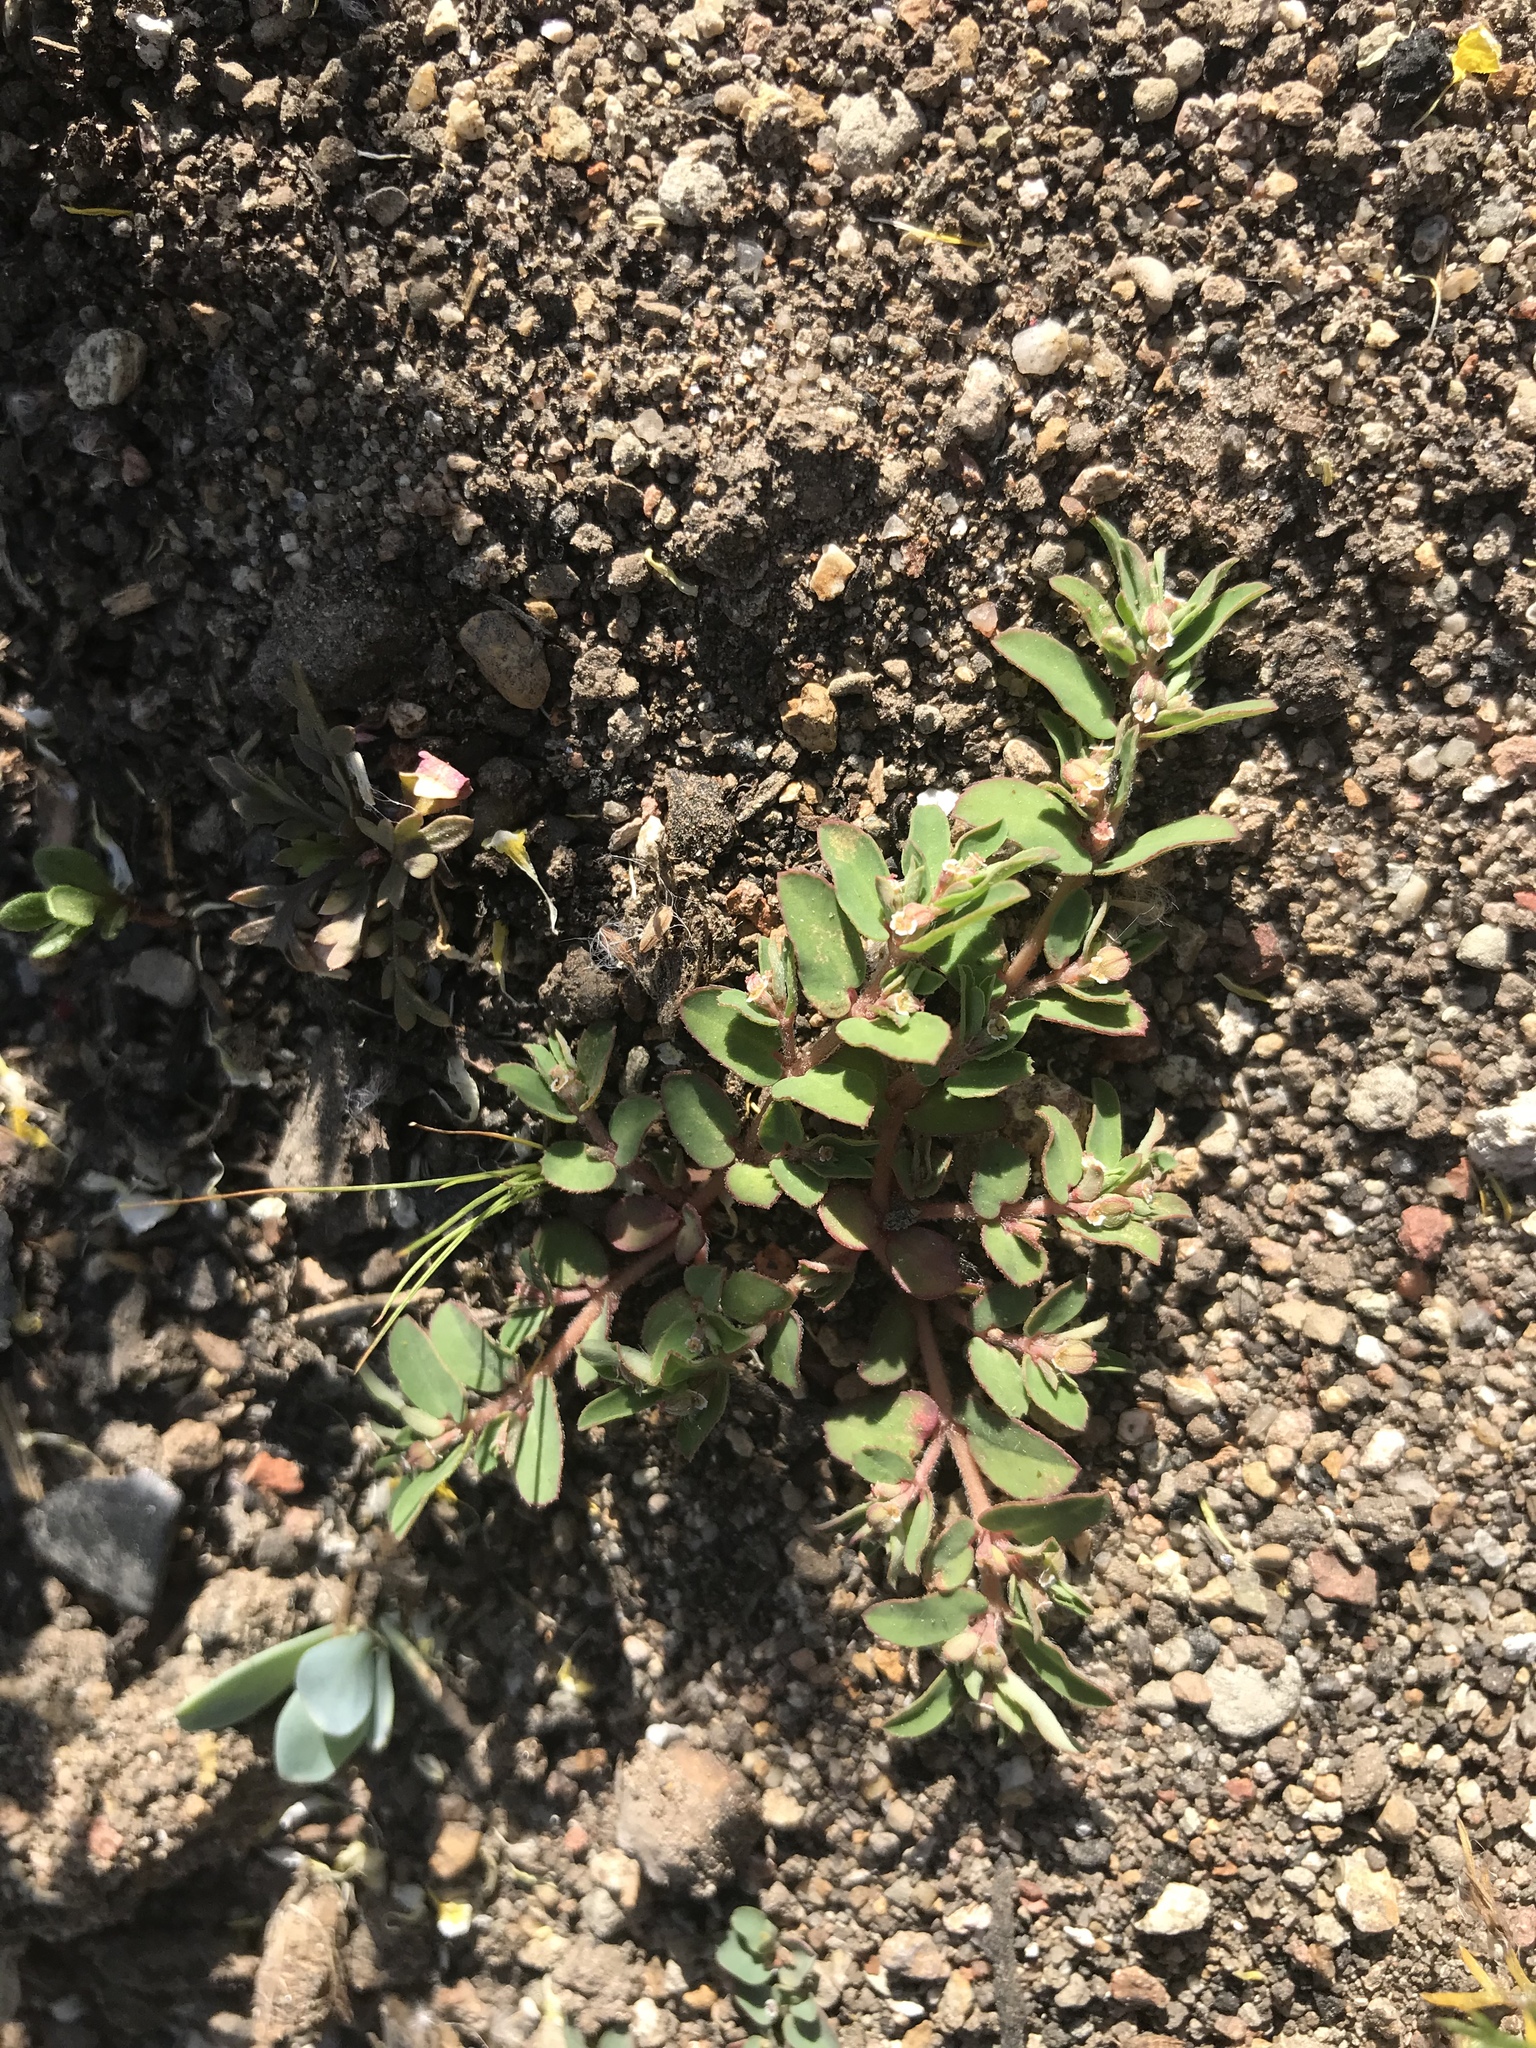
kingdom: Plantae
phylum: Tracheophyta
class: Magnoliopsida
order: Malpighiales
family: Euphorbiaceae
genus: Euphorbia
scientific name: Euphorbia maculata
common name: Spotted spurge
